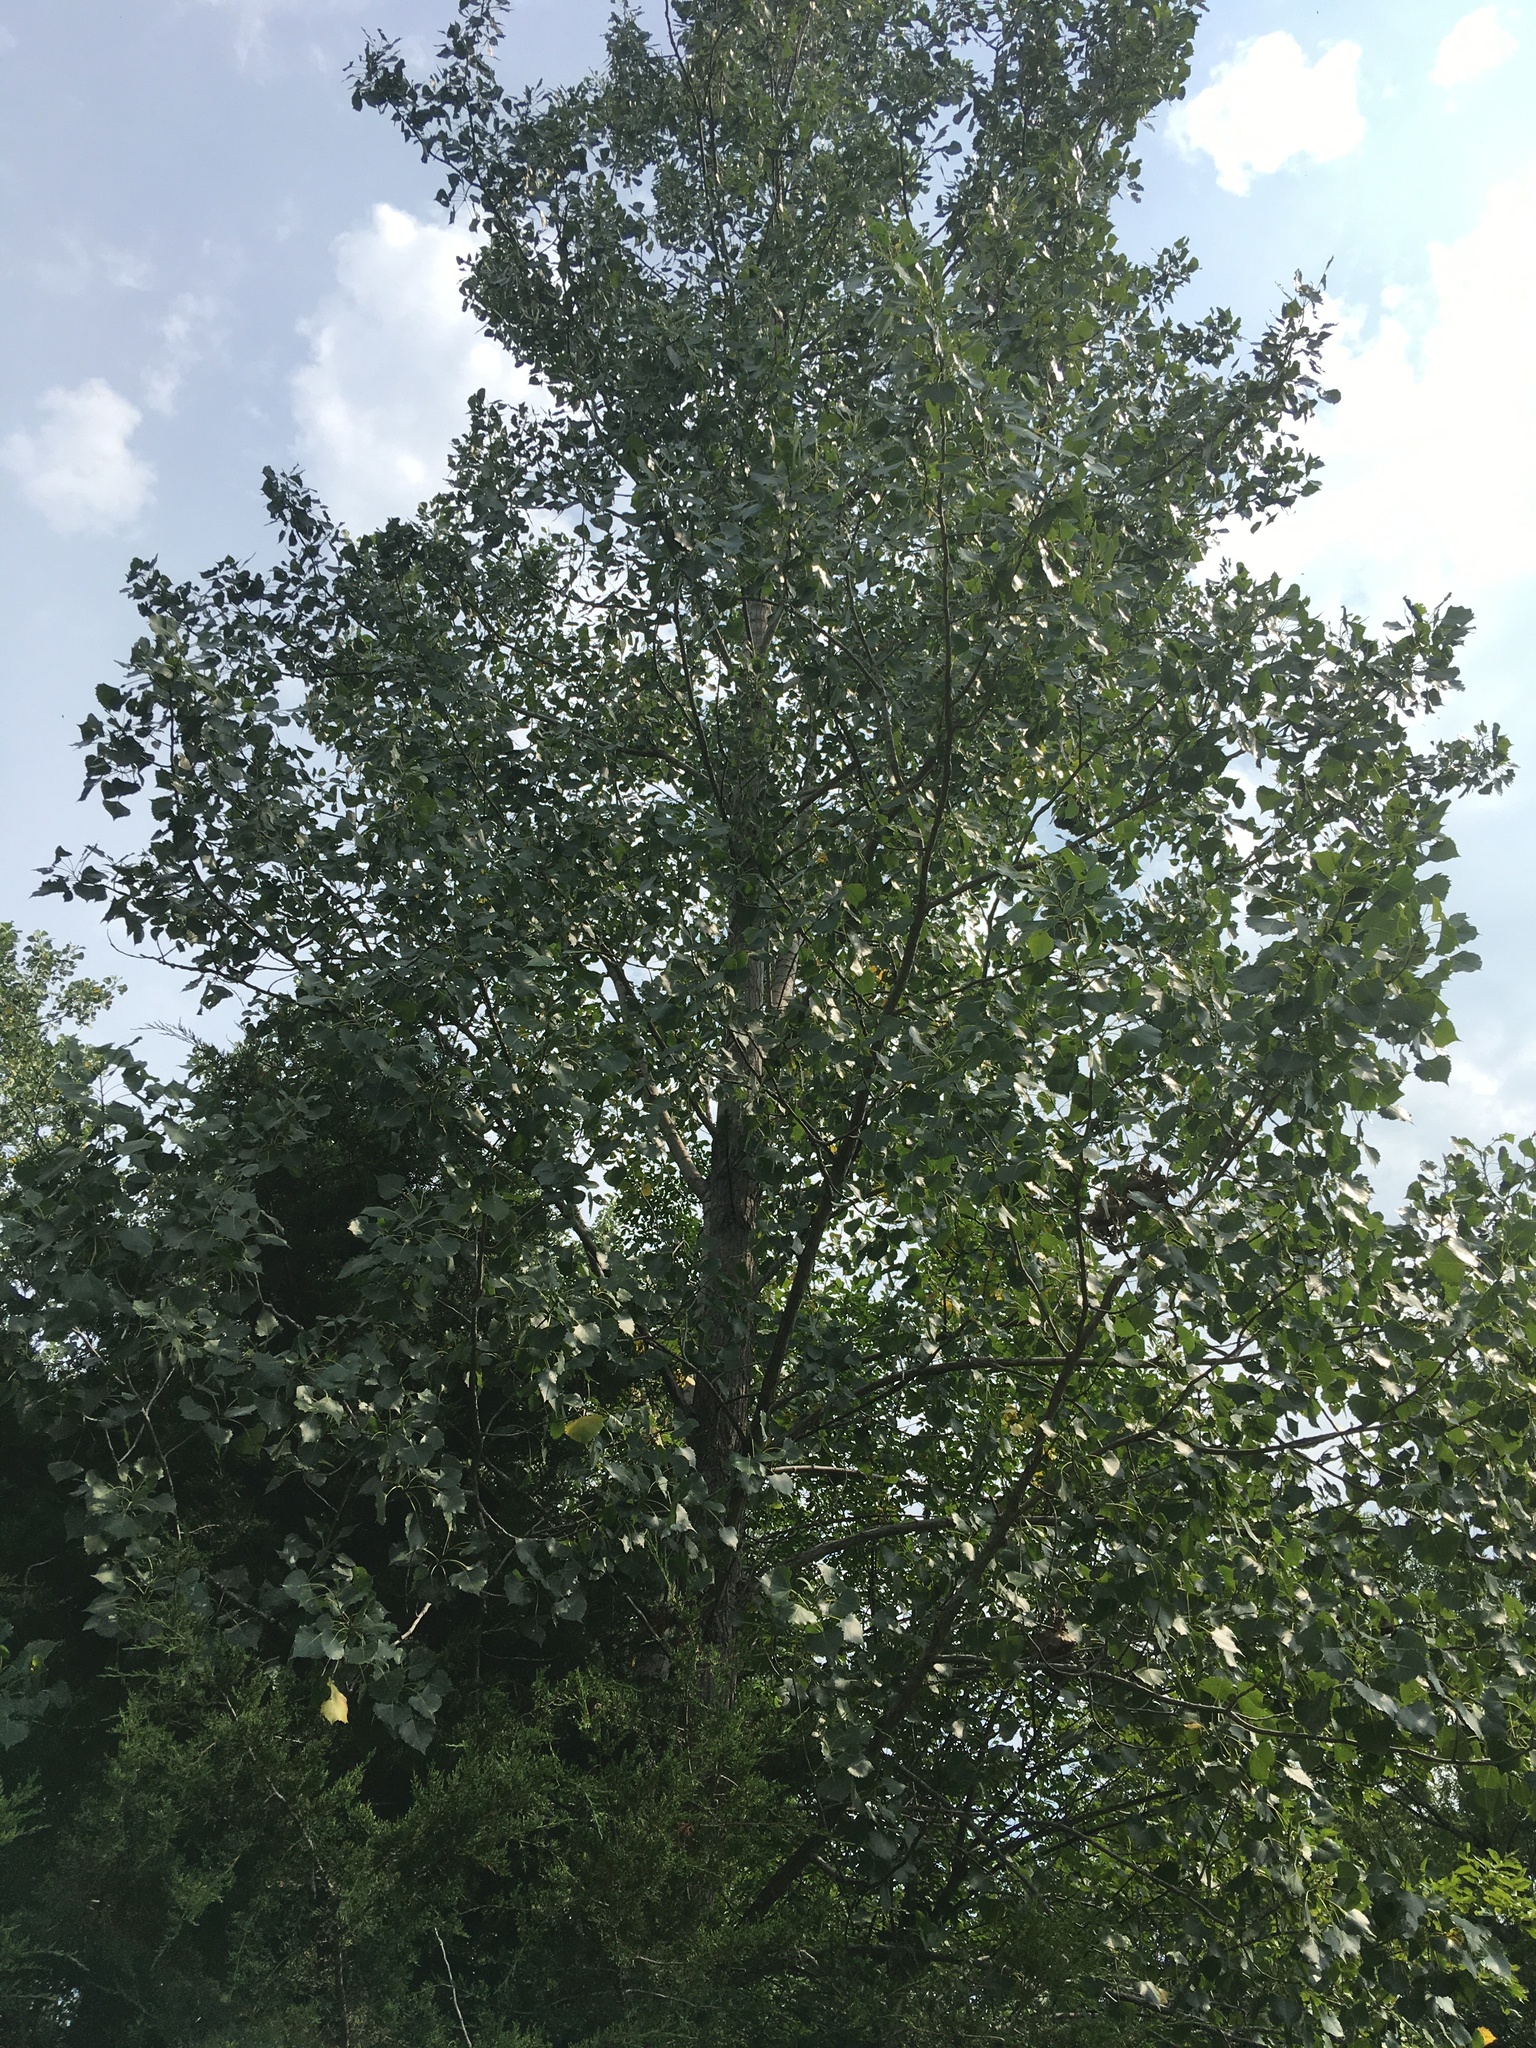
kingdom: Plantae
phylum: Tracheophyta
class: Magnoliopsida
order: Malpighiales
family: Salicaceae
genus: Populus
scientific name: Populus deltoides
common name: Eastern cottonwood
